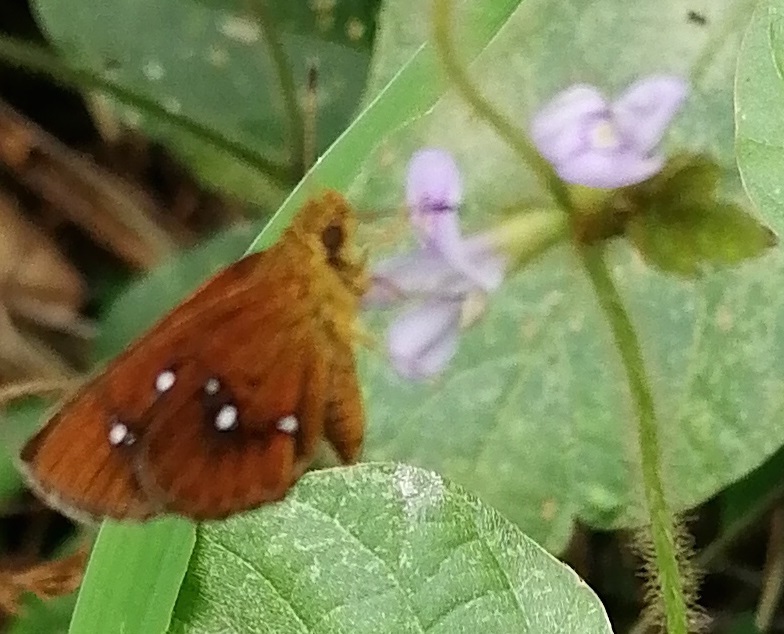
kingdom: Animalia
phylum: Arthropoda
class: Insecta
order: Lepidoptera
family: Hesperiidae
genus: Iambrix
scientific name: Iambrix salsala
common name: Chestnut bob
